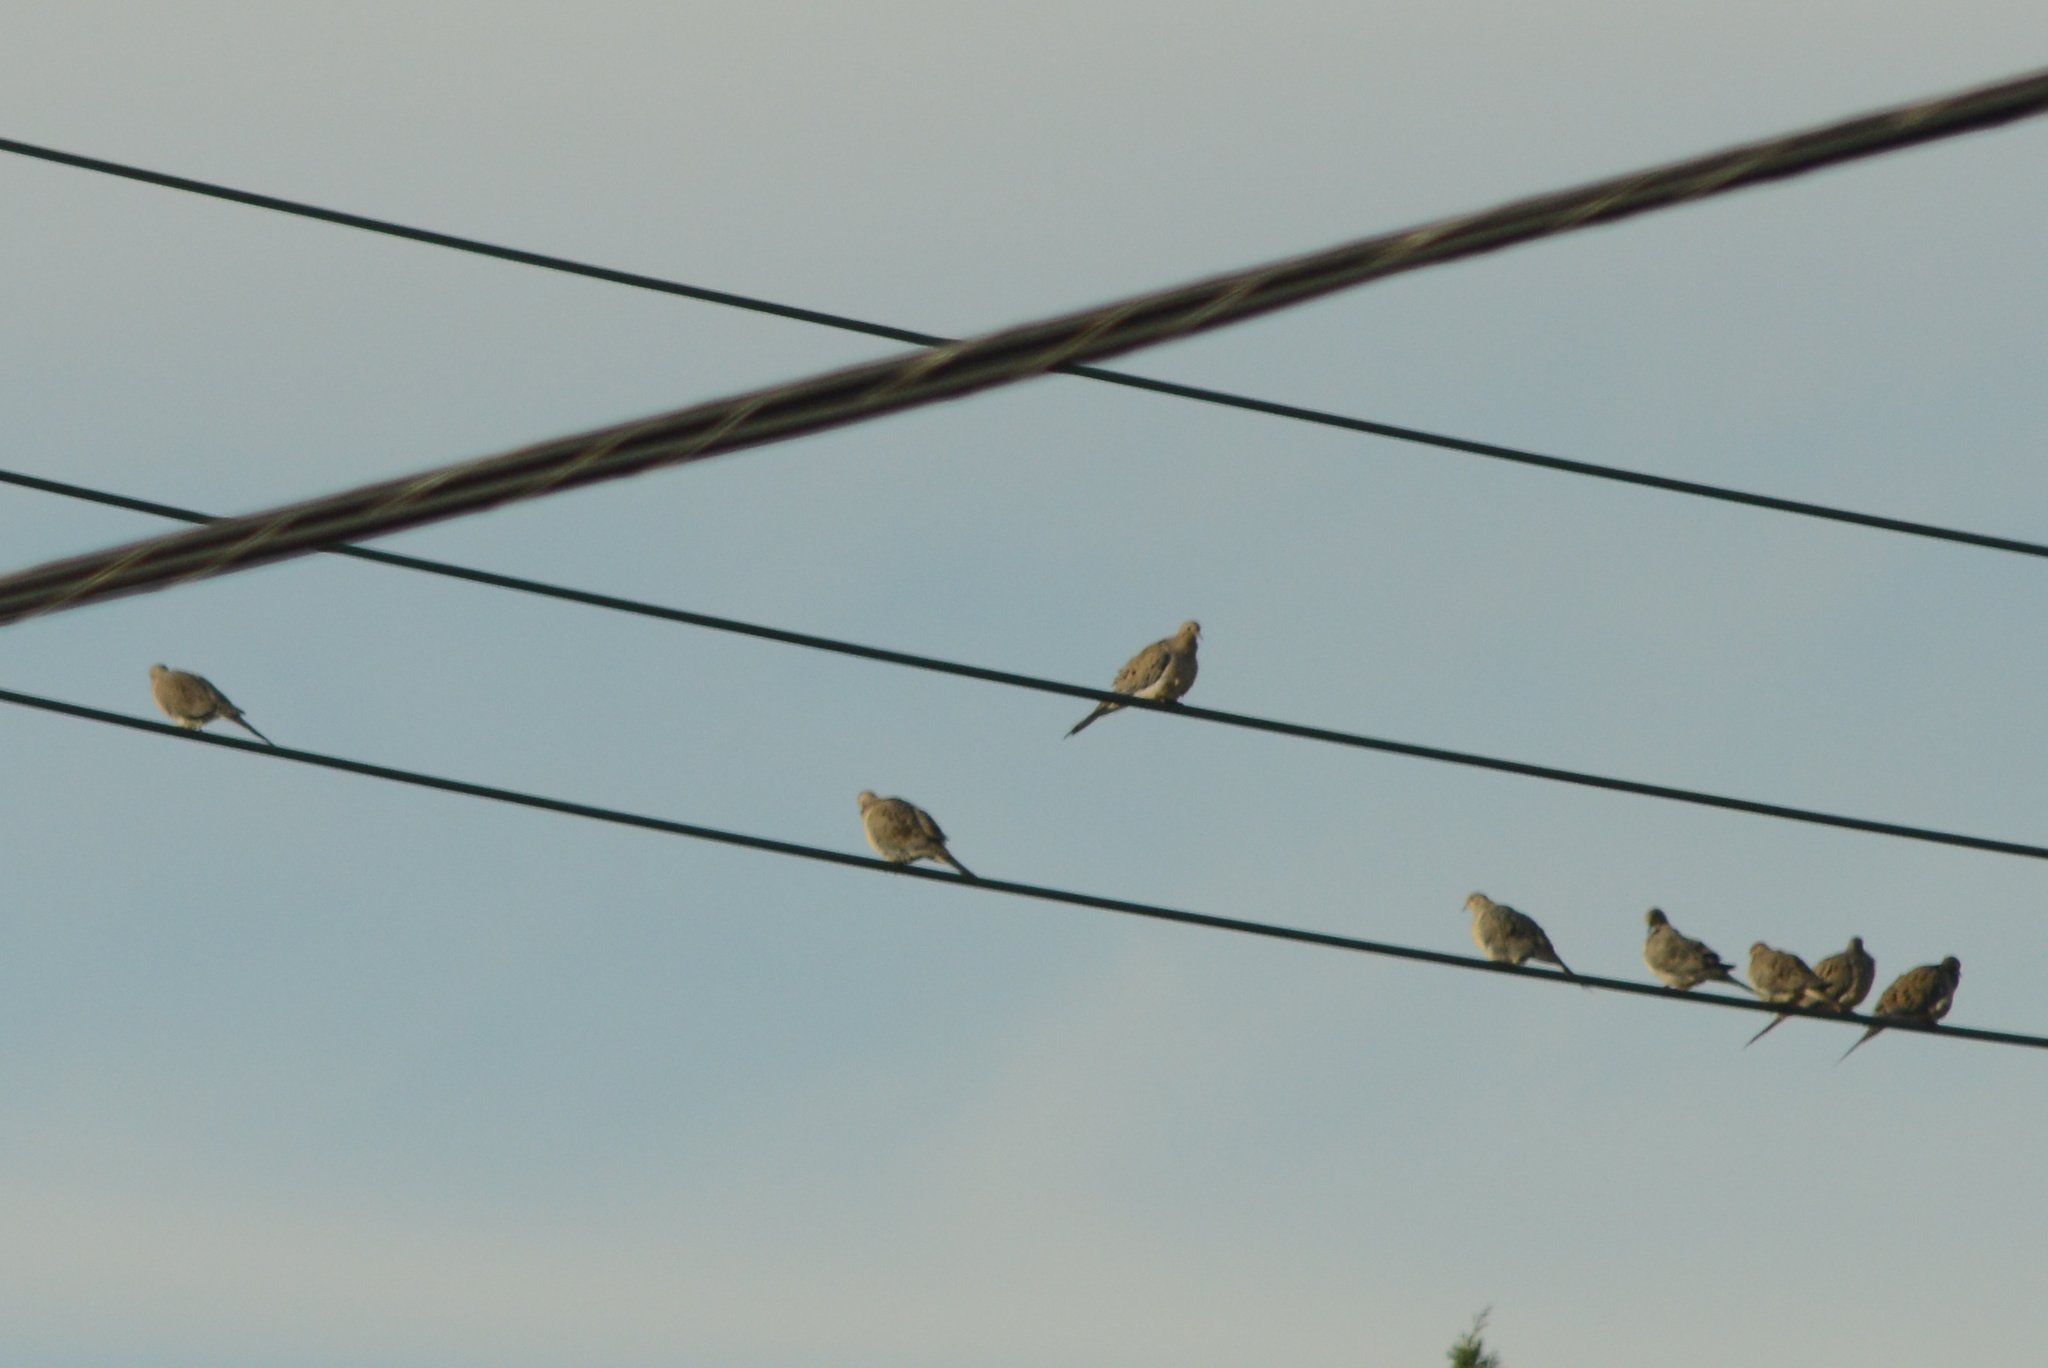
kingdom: Animalia
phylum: Chordata
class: Aves
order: Columbiformes
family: Columbidae
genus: Zenaida
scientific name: Zenaida macroura
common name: Mourning dove
